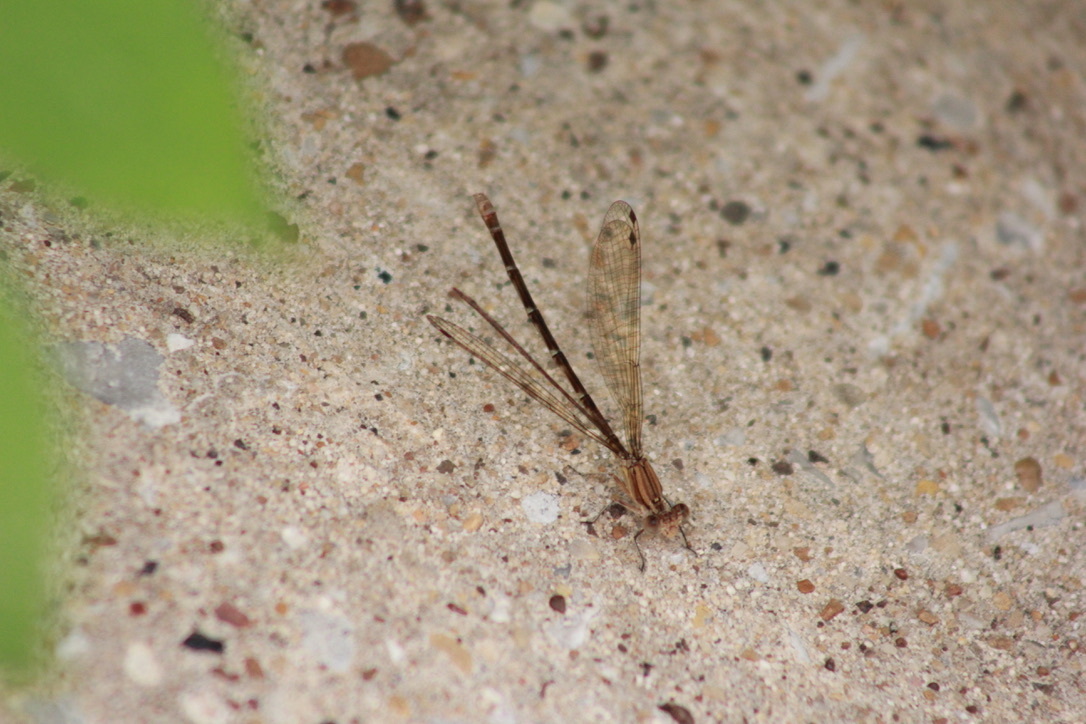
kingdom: Animalia
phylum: Arthropoda
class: Insecta
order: Odonata
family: Coenagrionidae
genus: Argia
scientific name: Argia sedula
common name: Blue-ringed dancer
